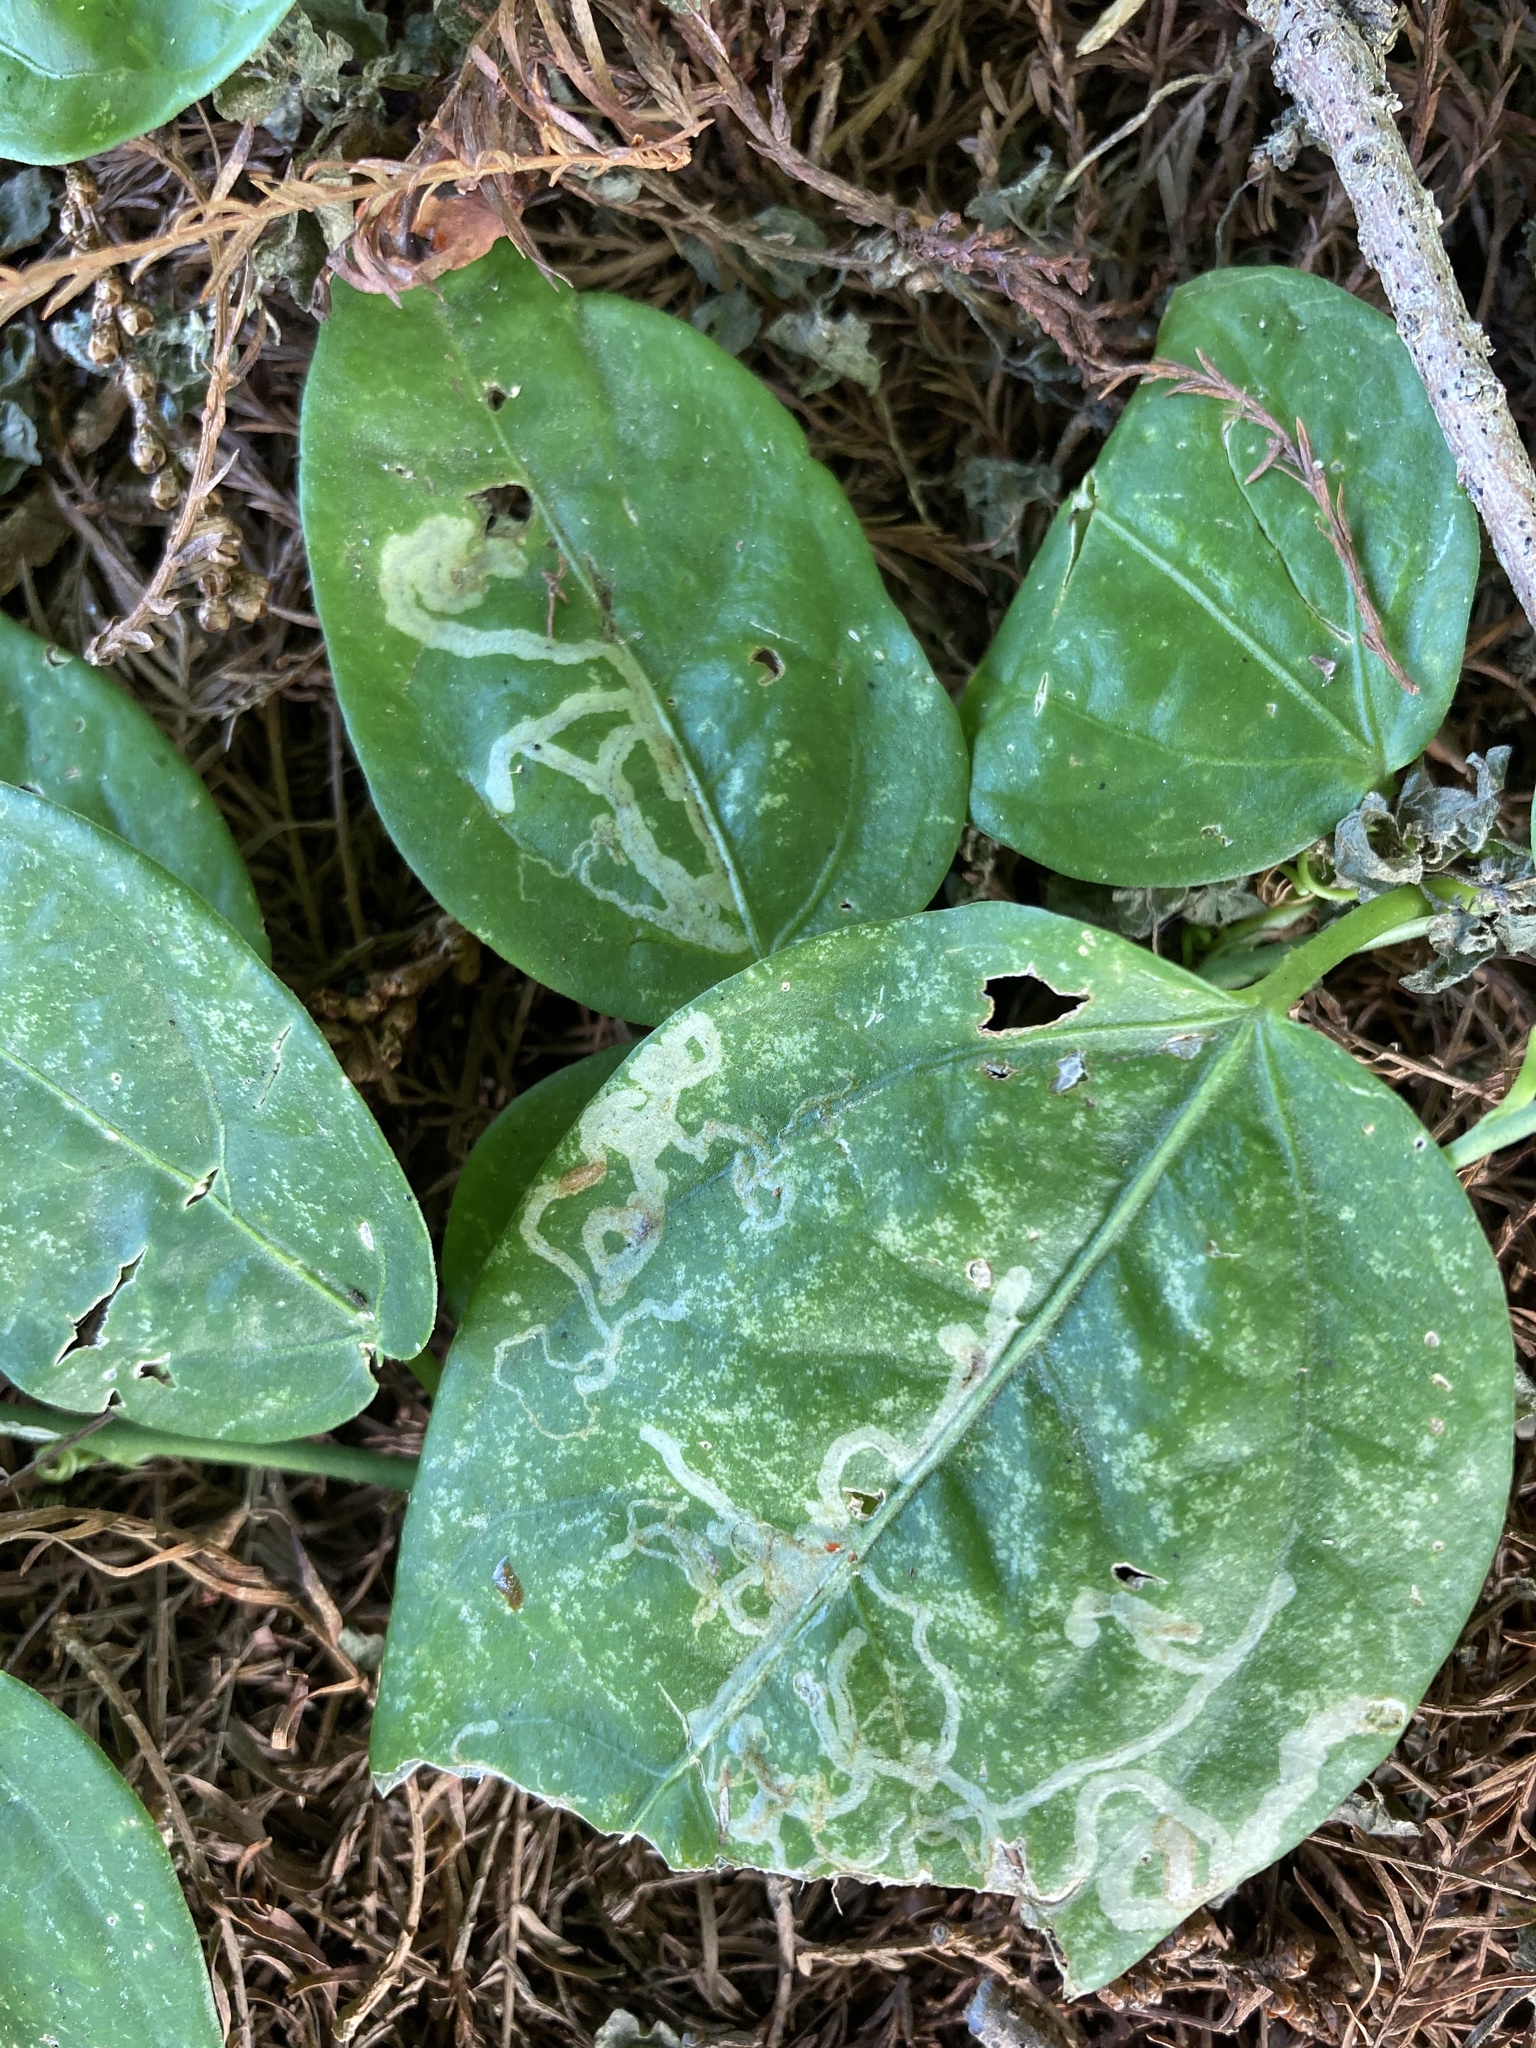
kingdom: Plantae
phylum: Tracheophyta
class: Magnoliopsida
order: Malpighiales
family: Passifloraceae
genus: Passiflora
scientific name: Passiflora pallida
